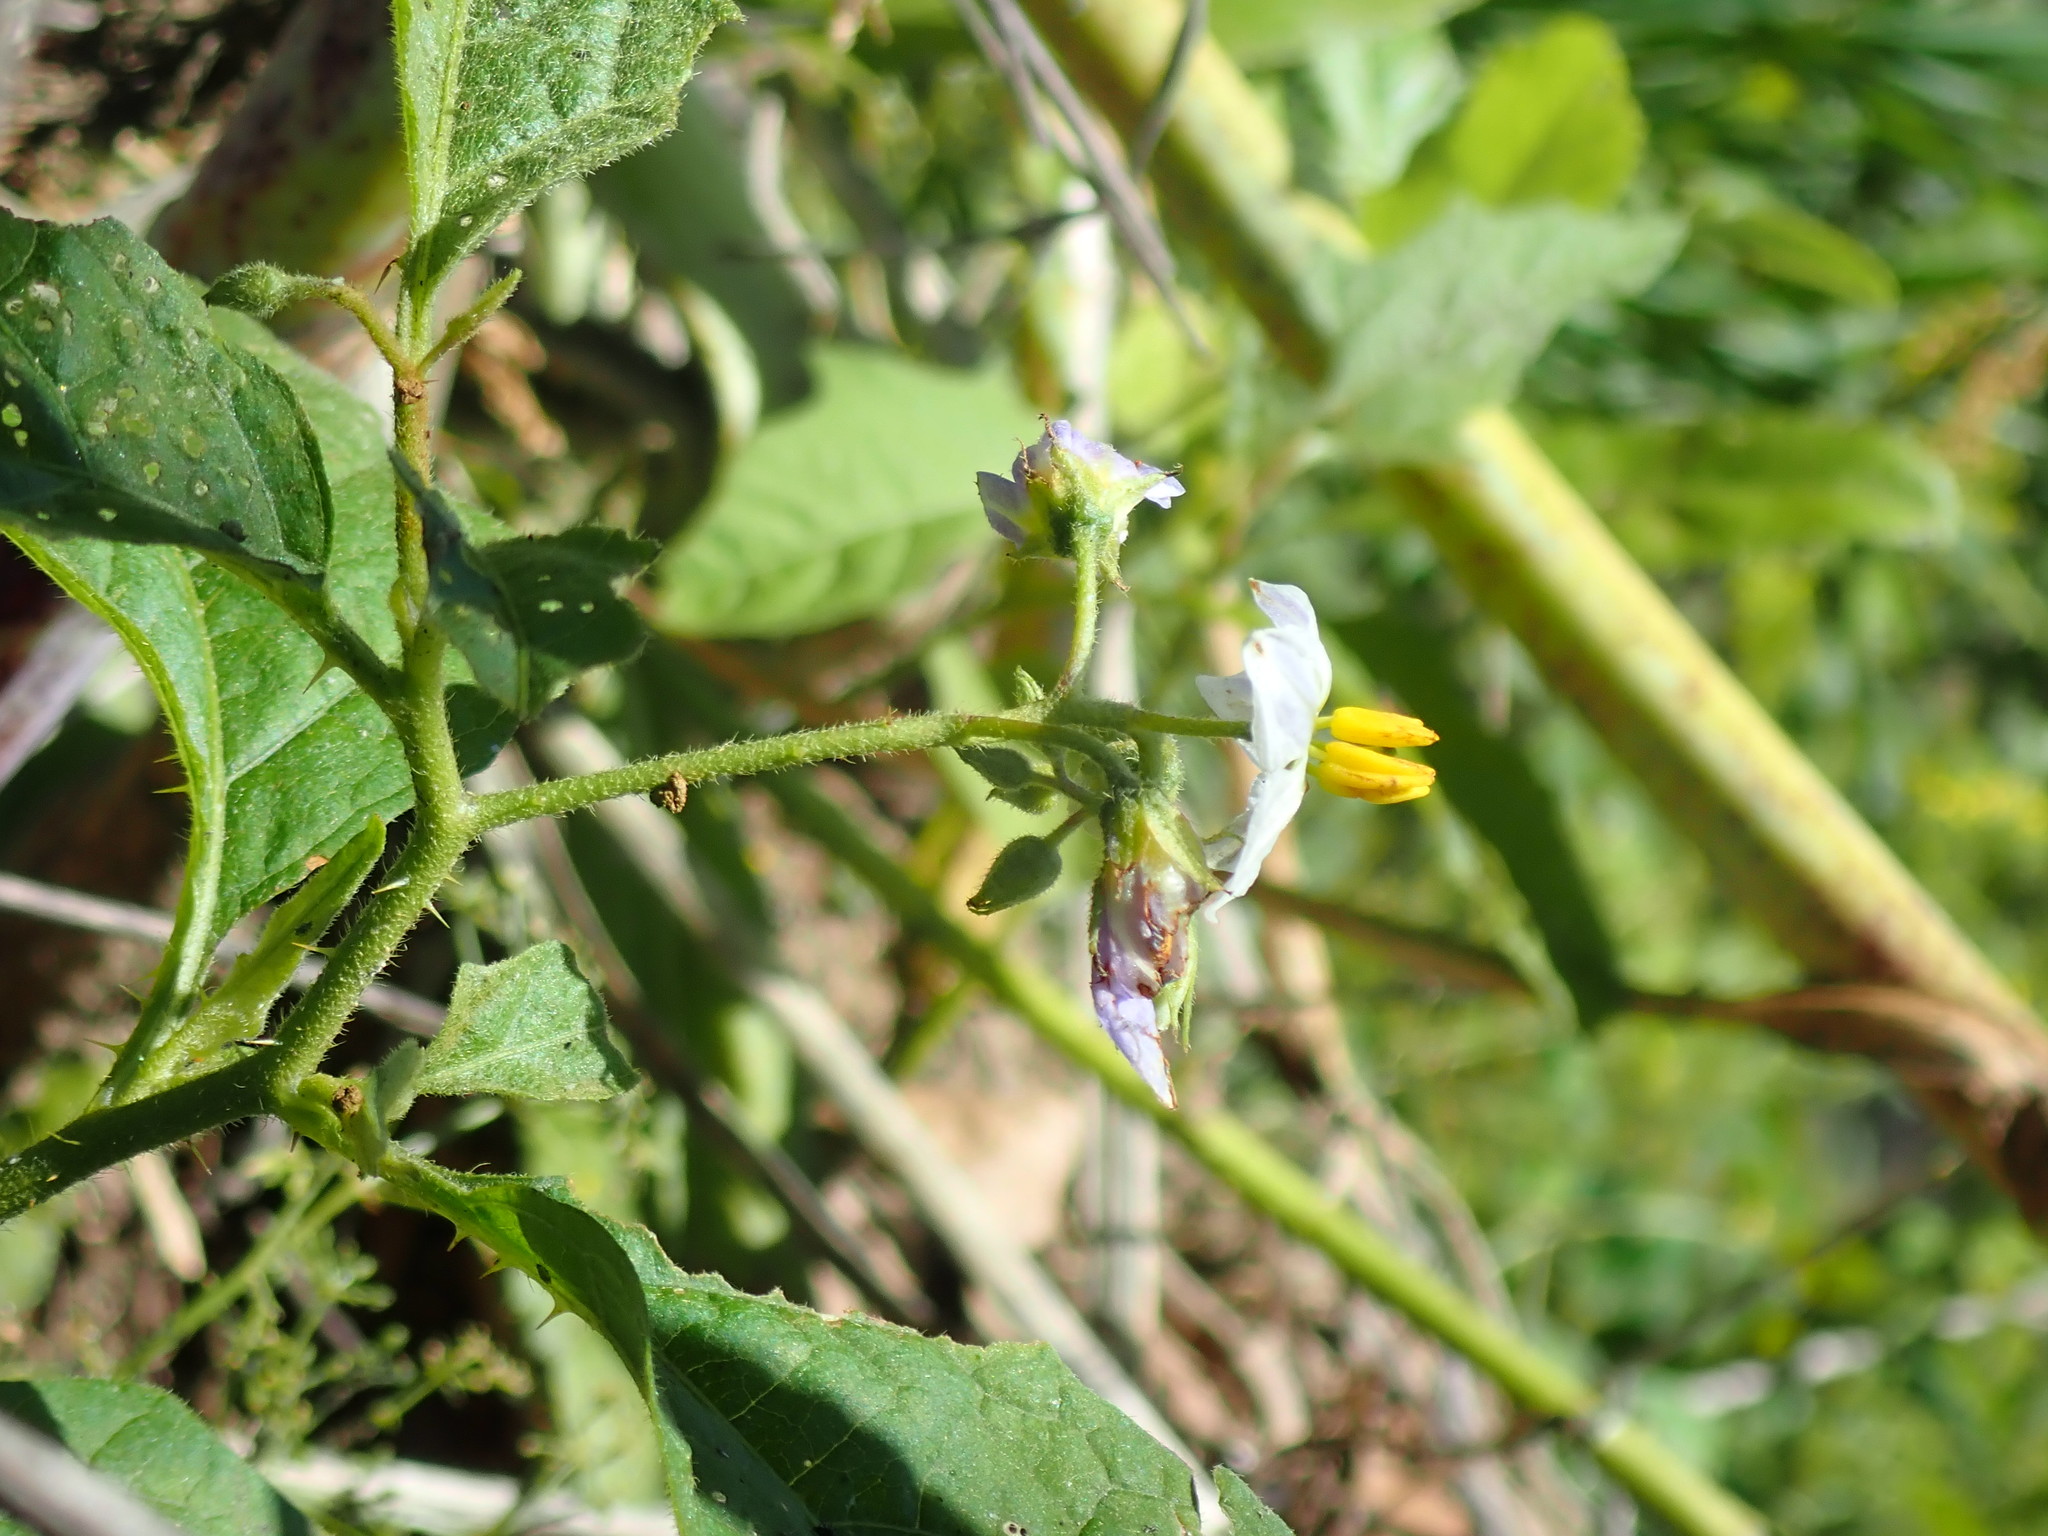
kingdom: Plantae
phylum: Tracheophyta
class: Magnoliopsida
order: Solanales
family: Solanaceae
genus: Solanum
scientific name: Solanum carolinense
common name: Horse-nettle
